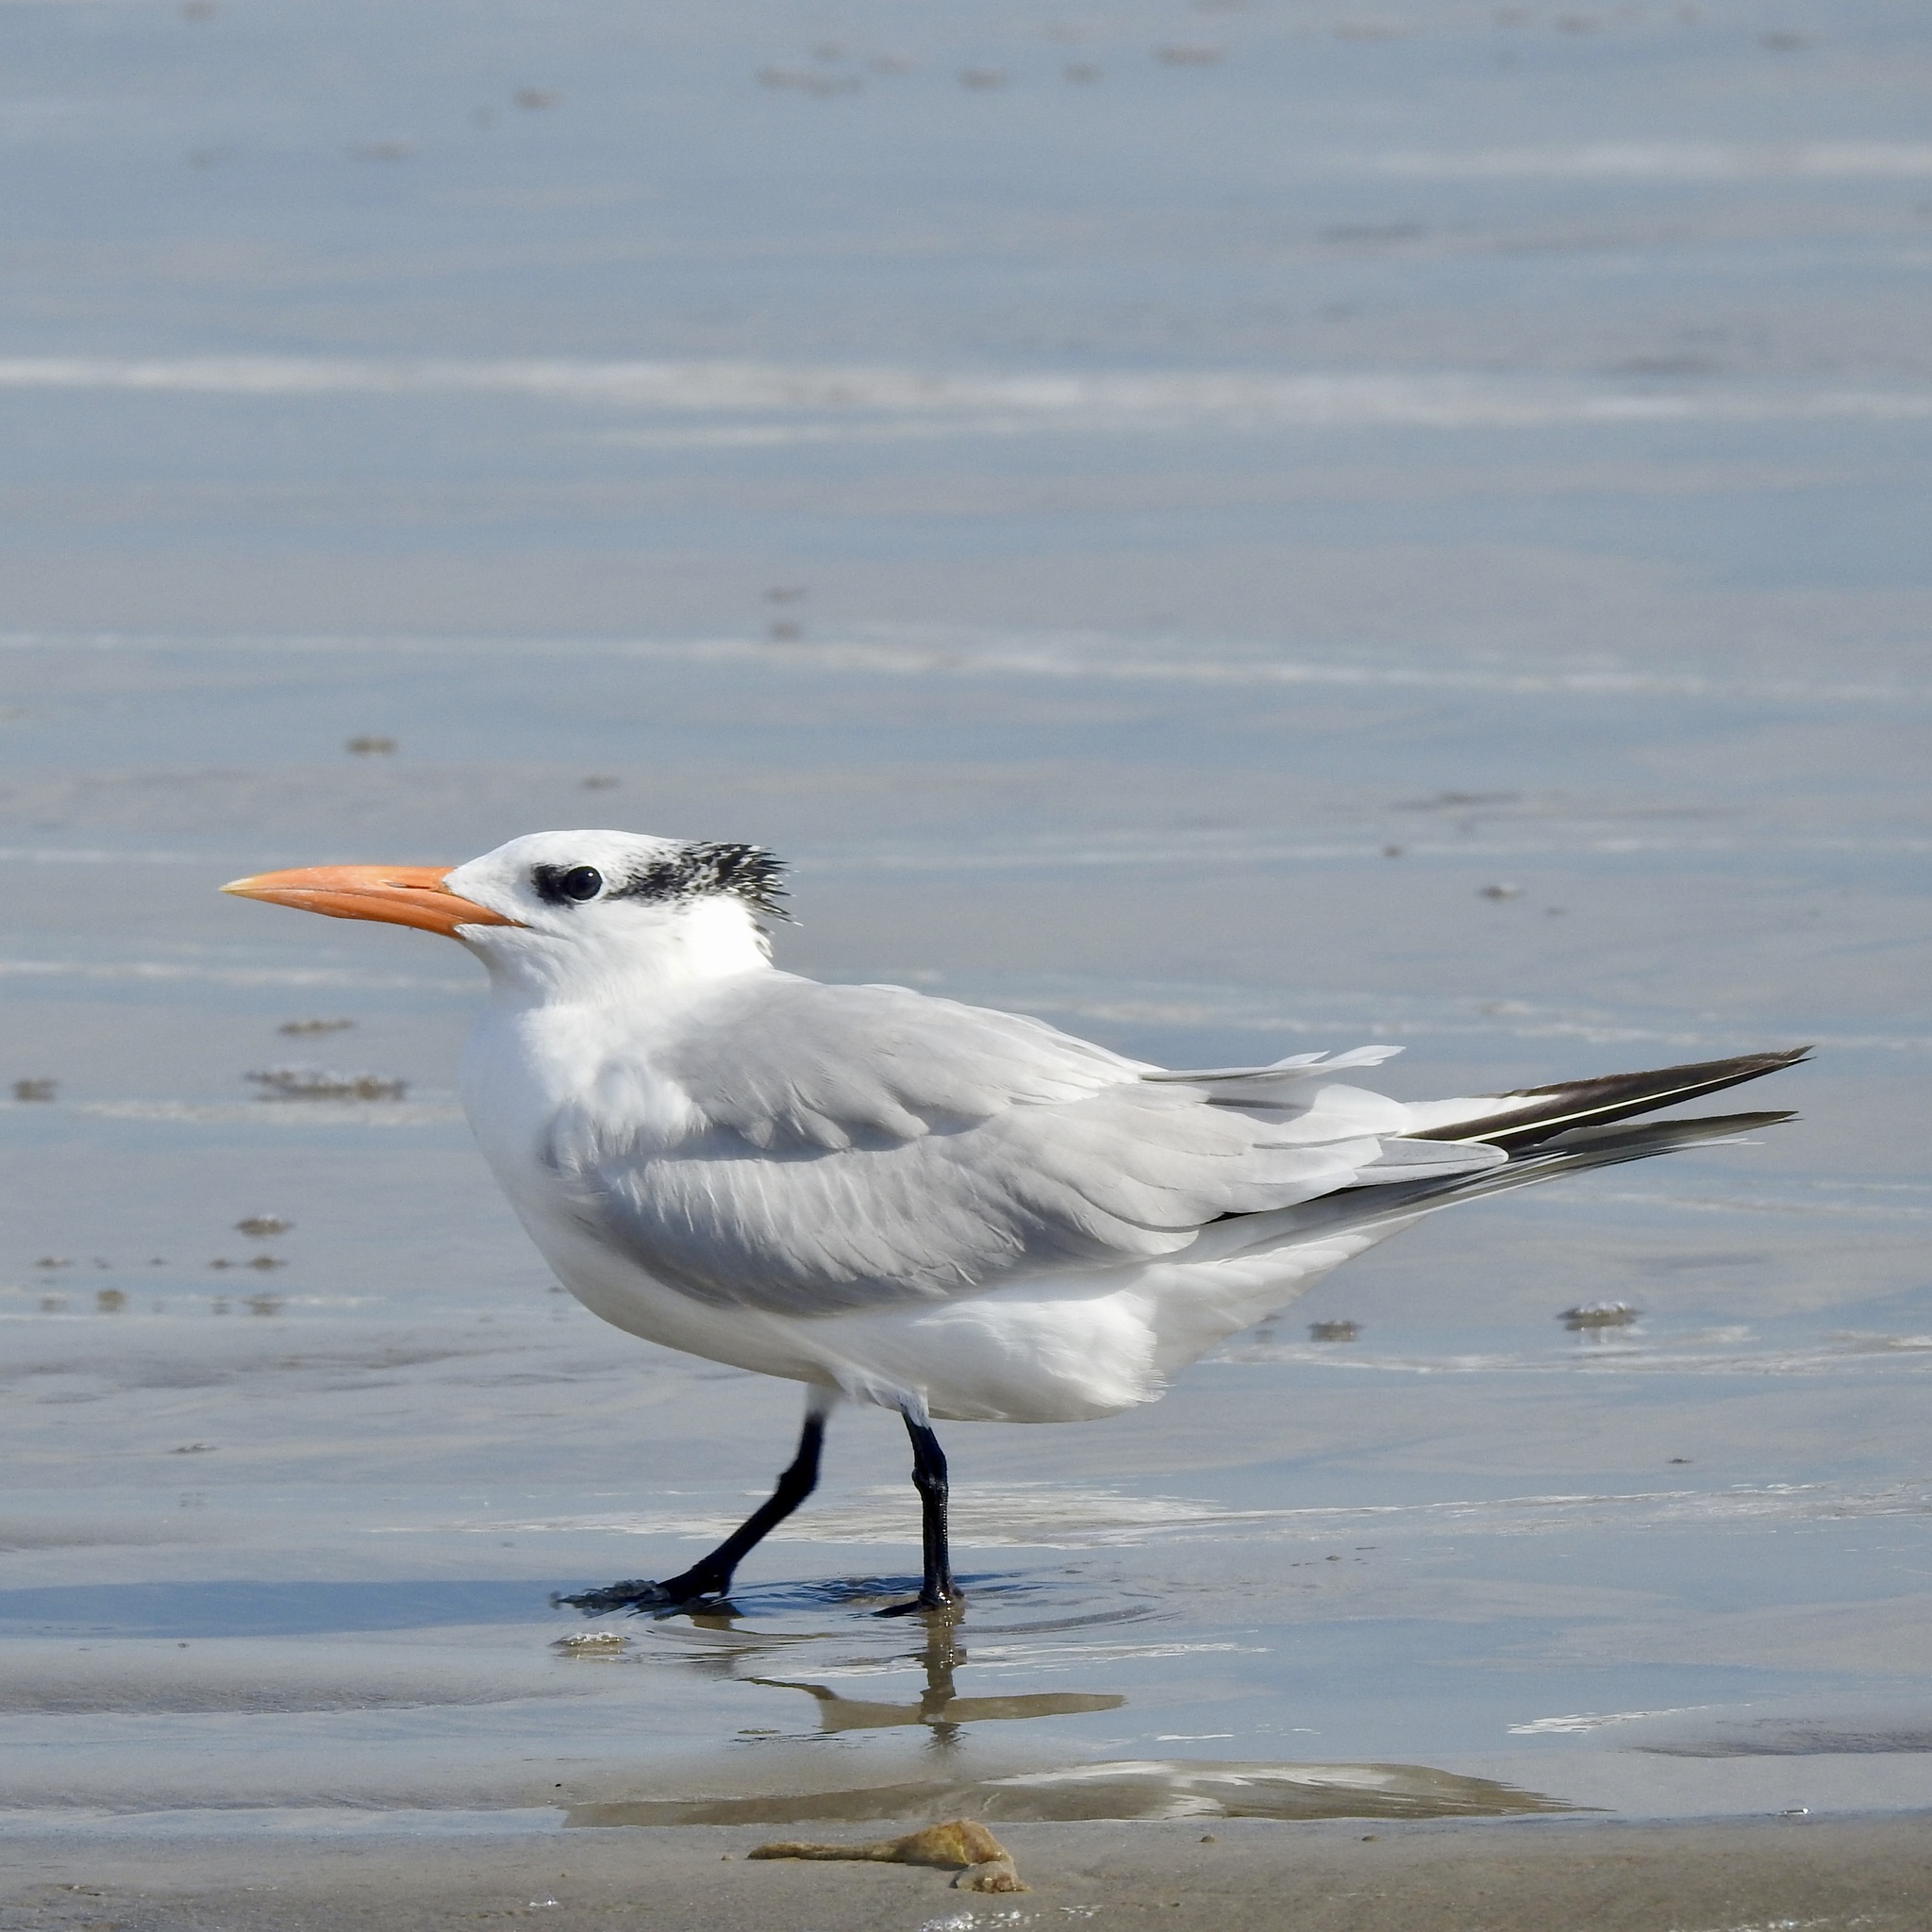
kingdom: Animalia
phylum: Chordata
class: Aves
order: Charadriiformes
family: Laridae
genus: Thalasseus
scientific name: Thalasseus maximus
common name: Royal tern
